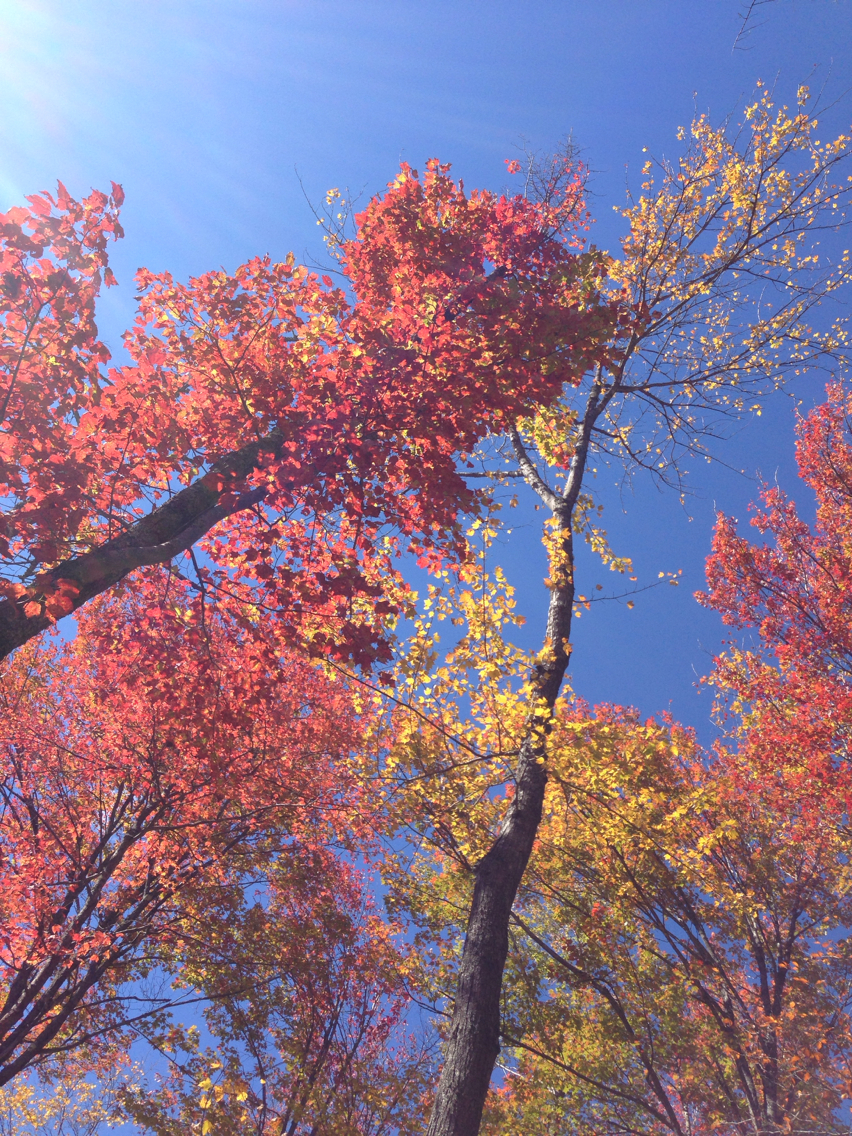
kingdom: Plantae
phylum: Tracheophyta
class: Magnoliopsida
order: Sapindales
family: Sapindaceae
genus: Acer
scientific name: Acer rubrum
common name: Red maple
